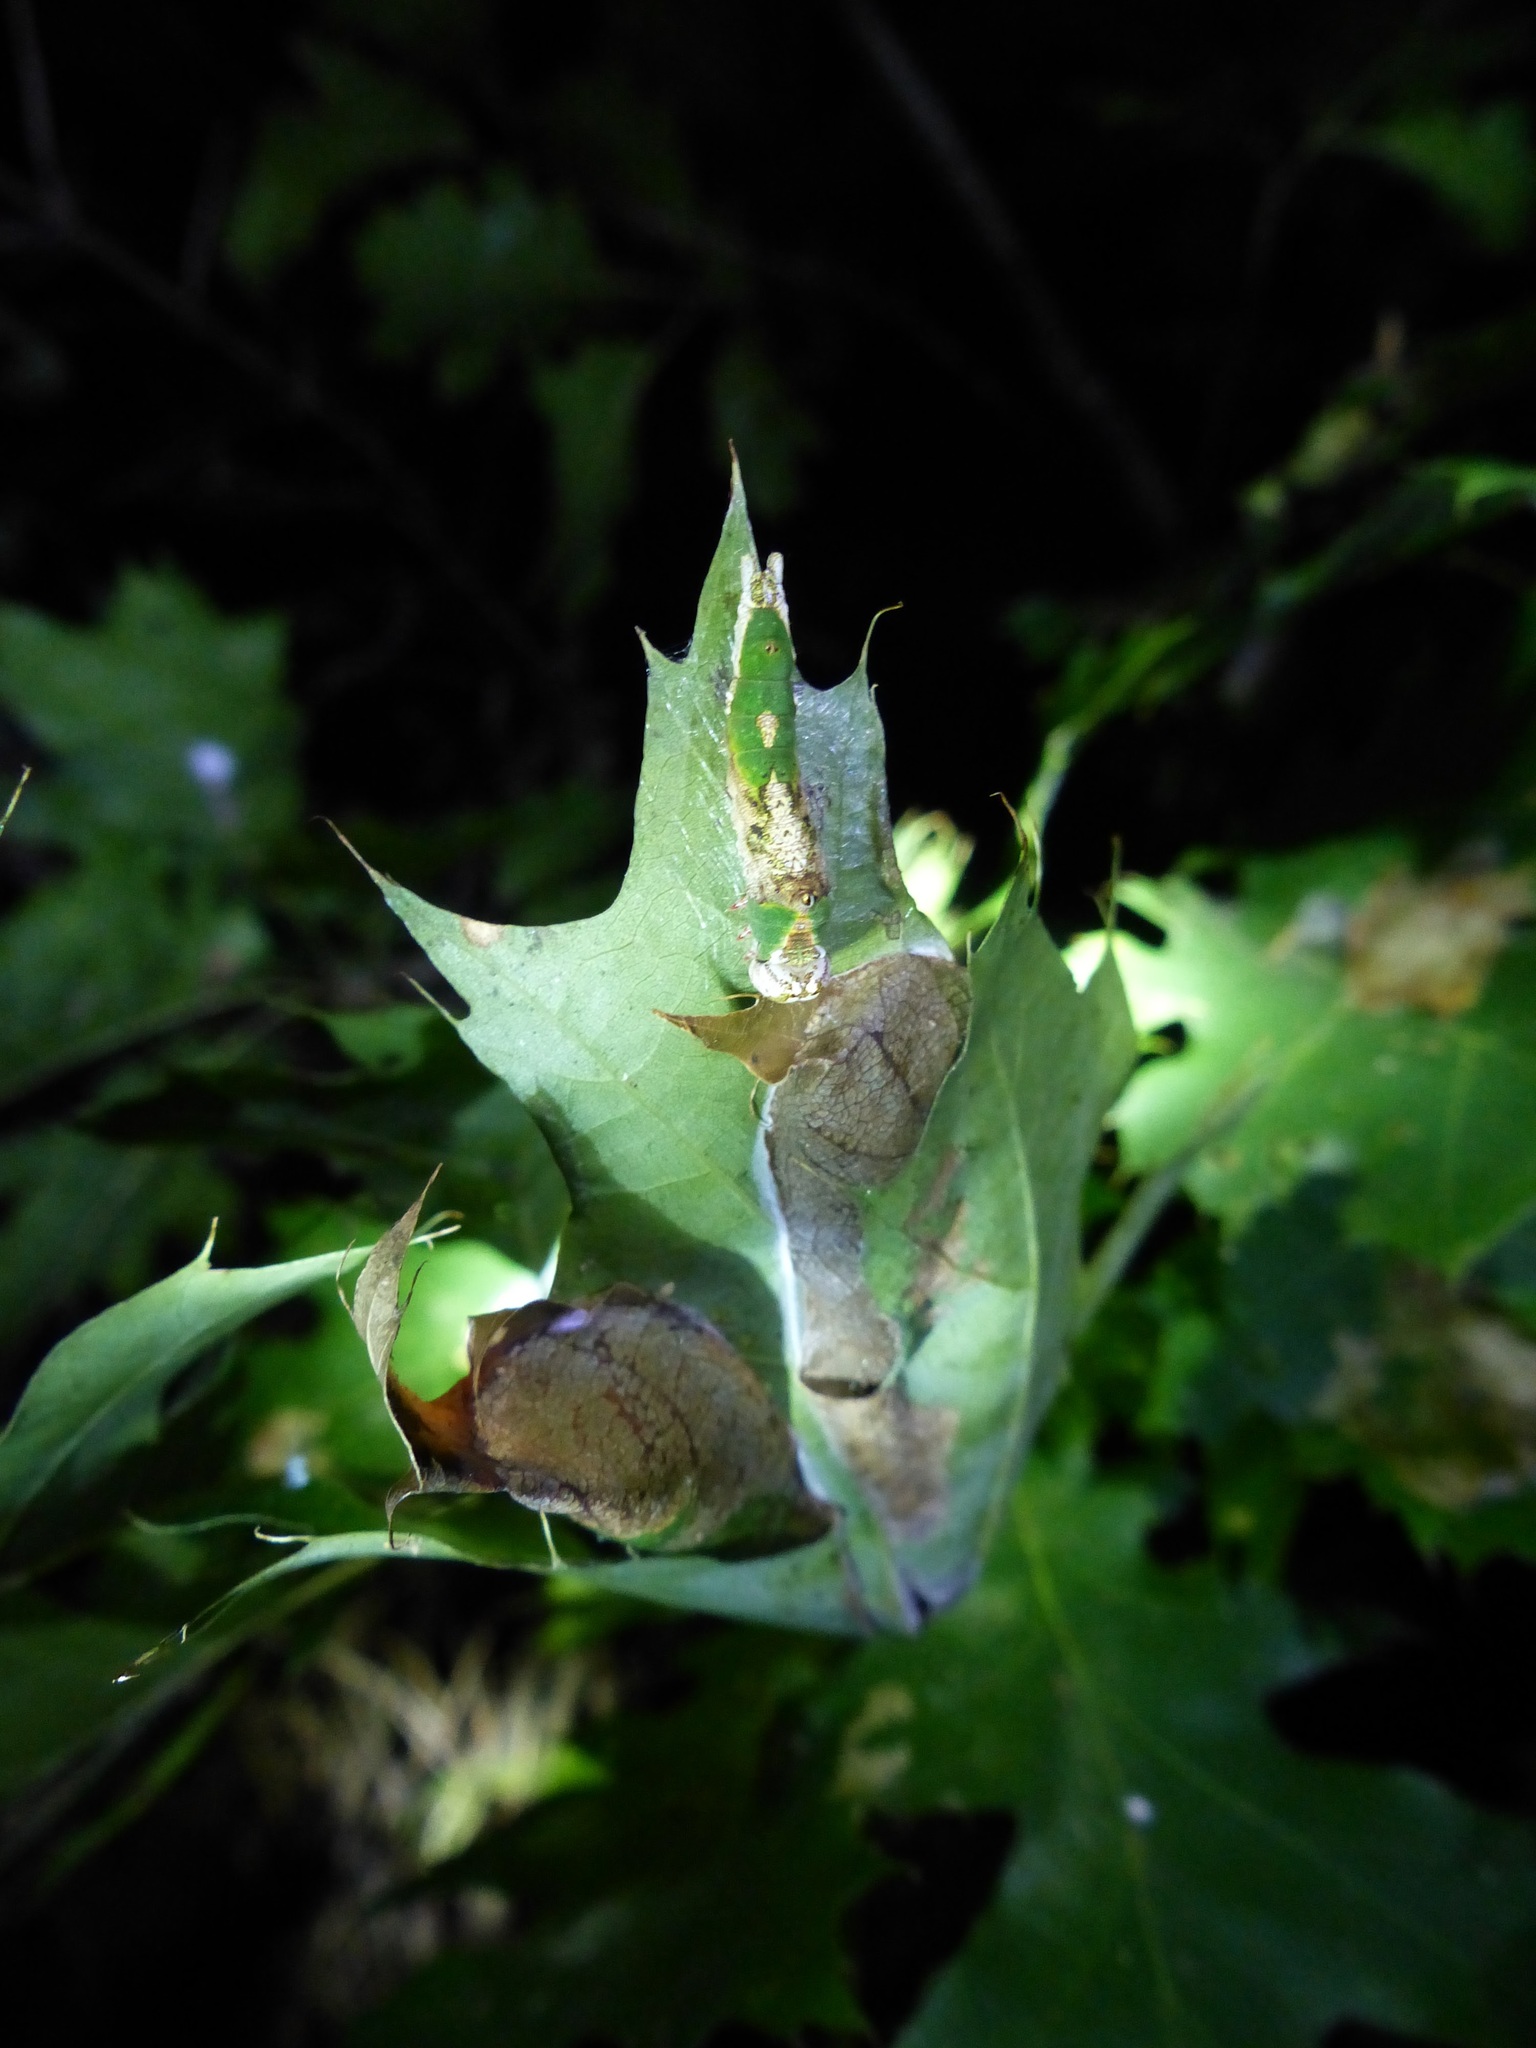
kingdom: Animalia
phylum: Arthropoda
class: Insecta
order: Lepidoptera
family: Notodontidae
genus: Oligocentria
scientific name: Oligocentria Ianassa lignicolor
